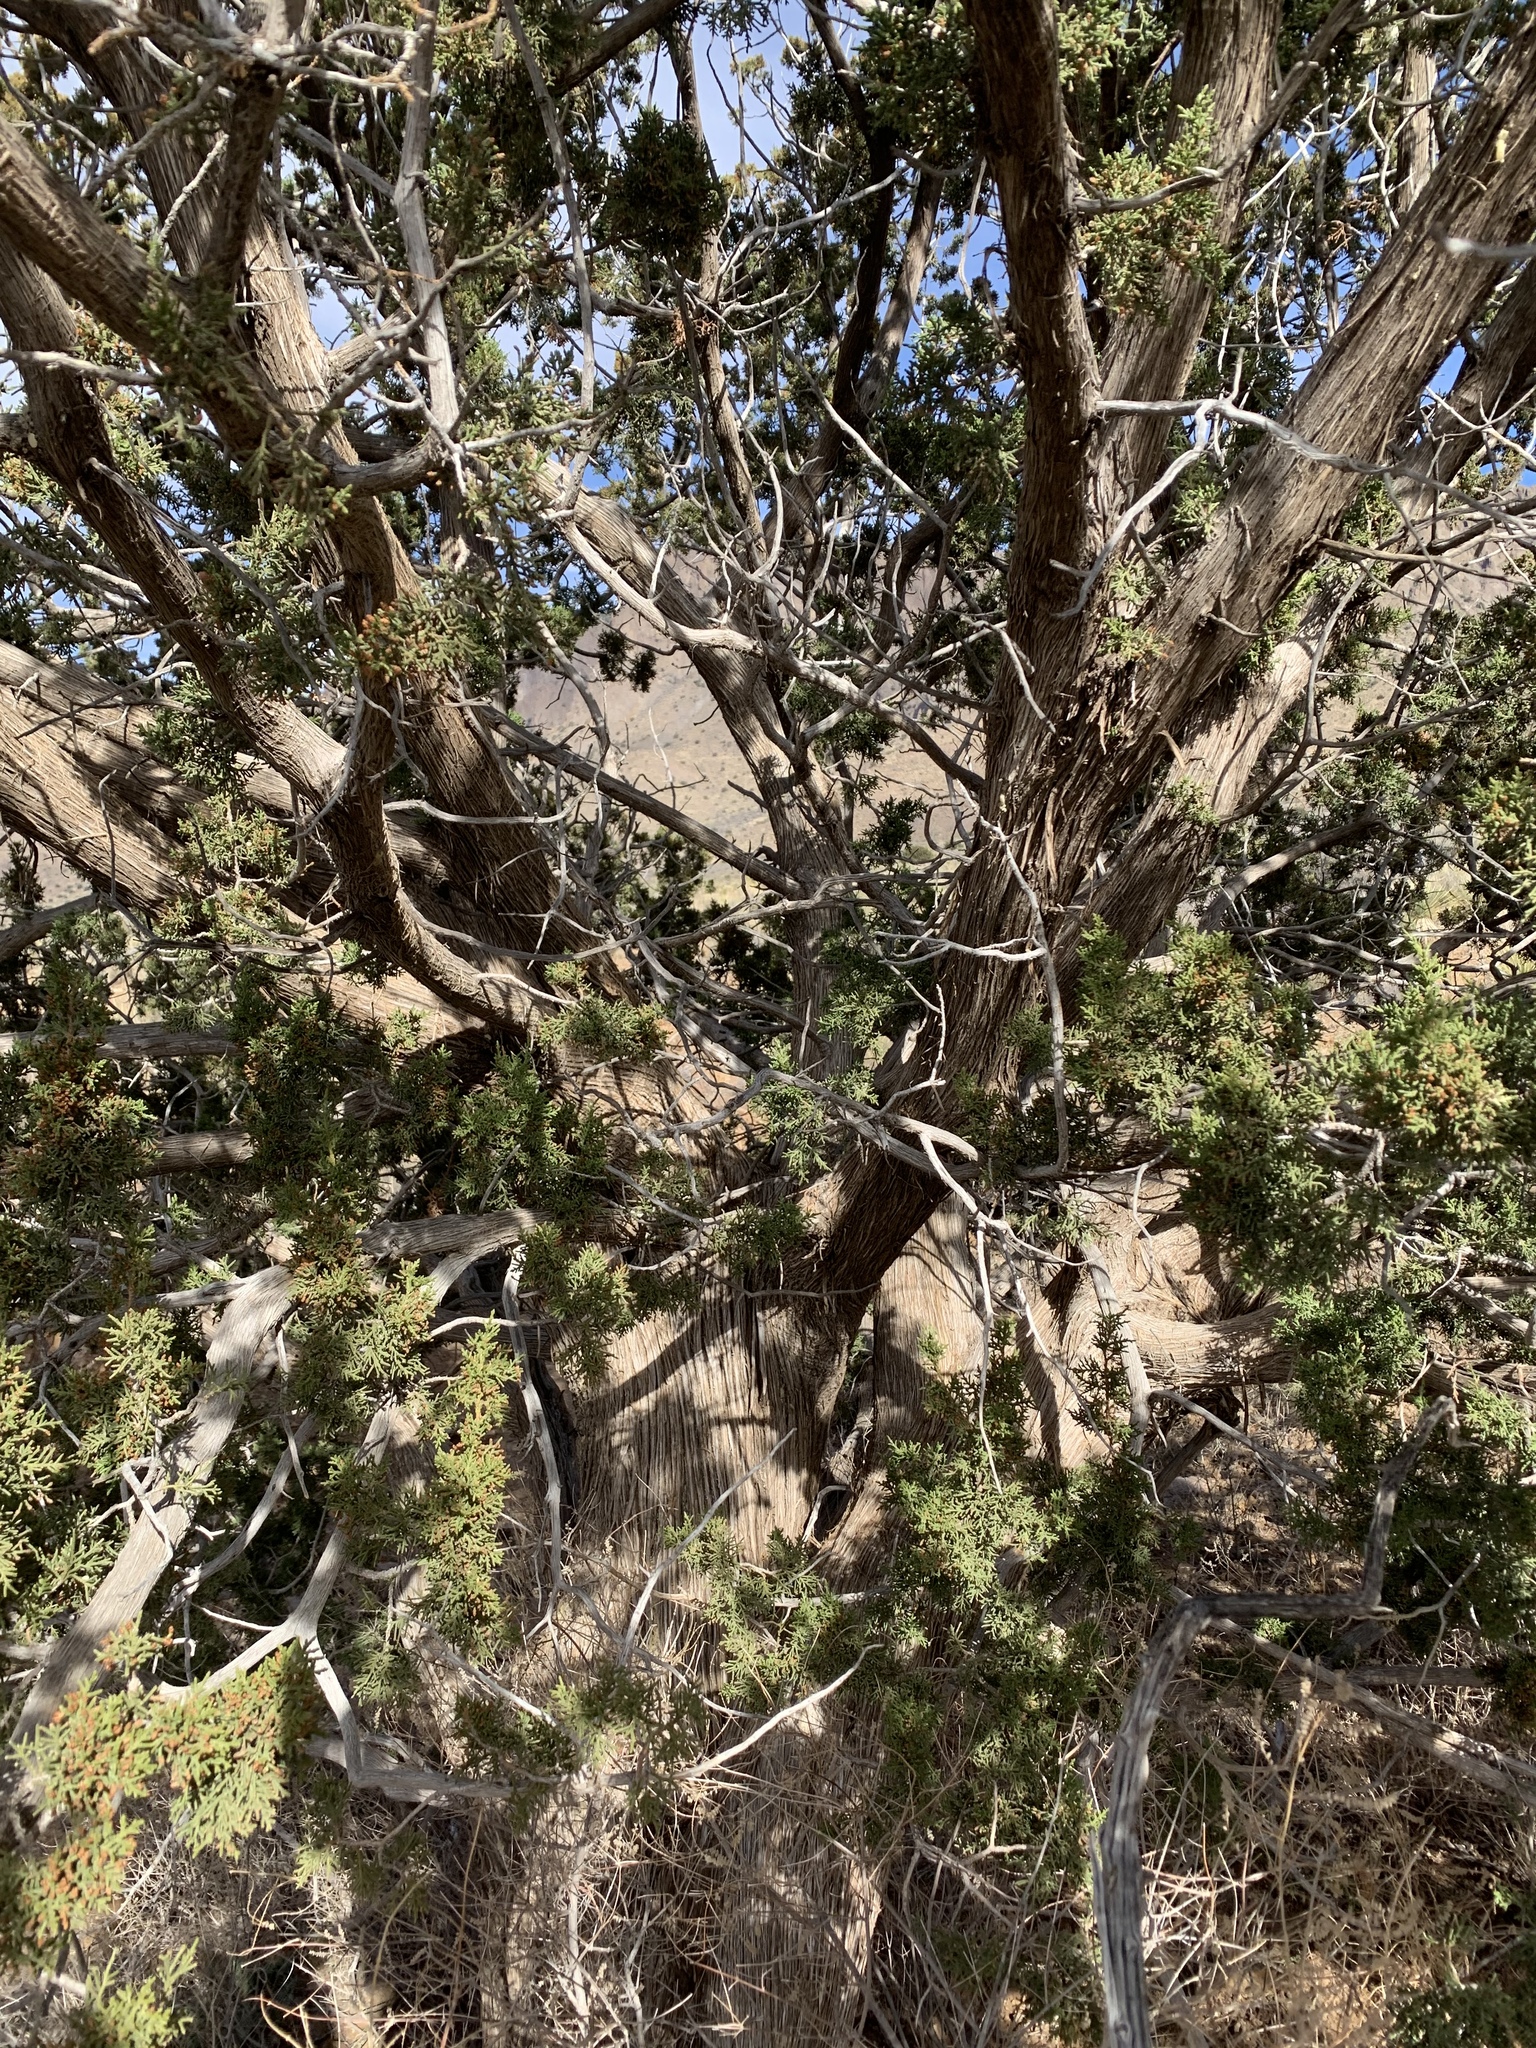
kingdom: Plantae
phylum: Tracheophyta
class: Pinopsida
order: Pinales
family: Cupressaceae
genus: Juniperus
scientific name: Juniperus arizonica
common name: Arizona juniper
